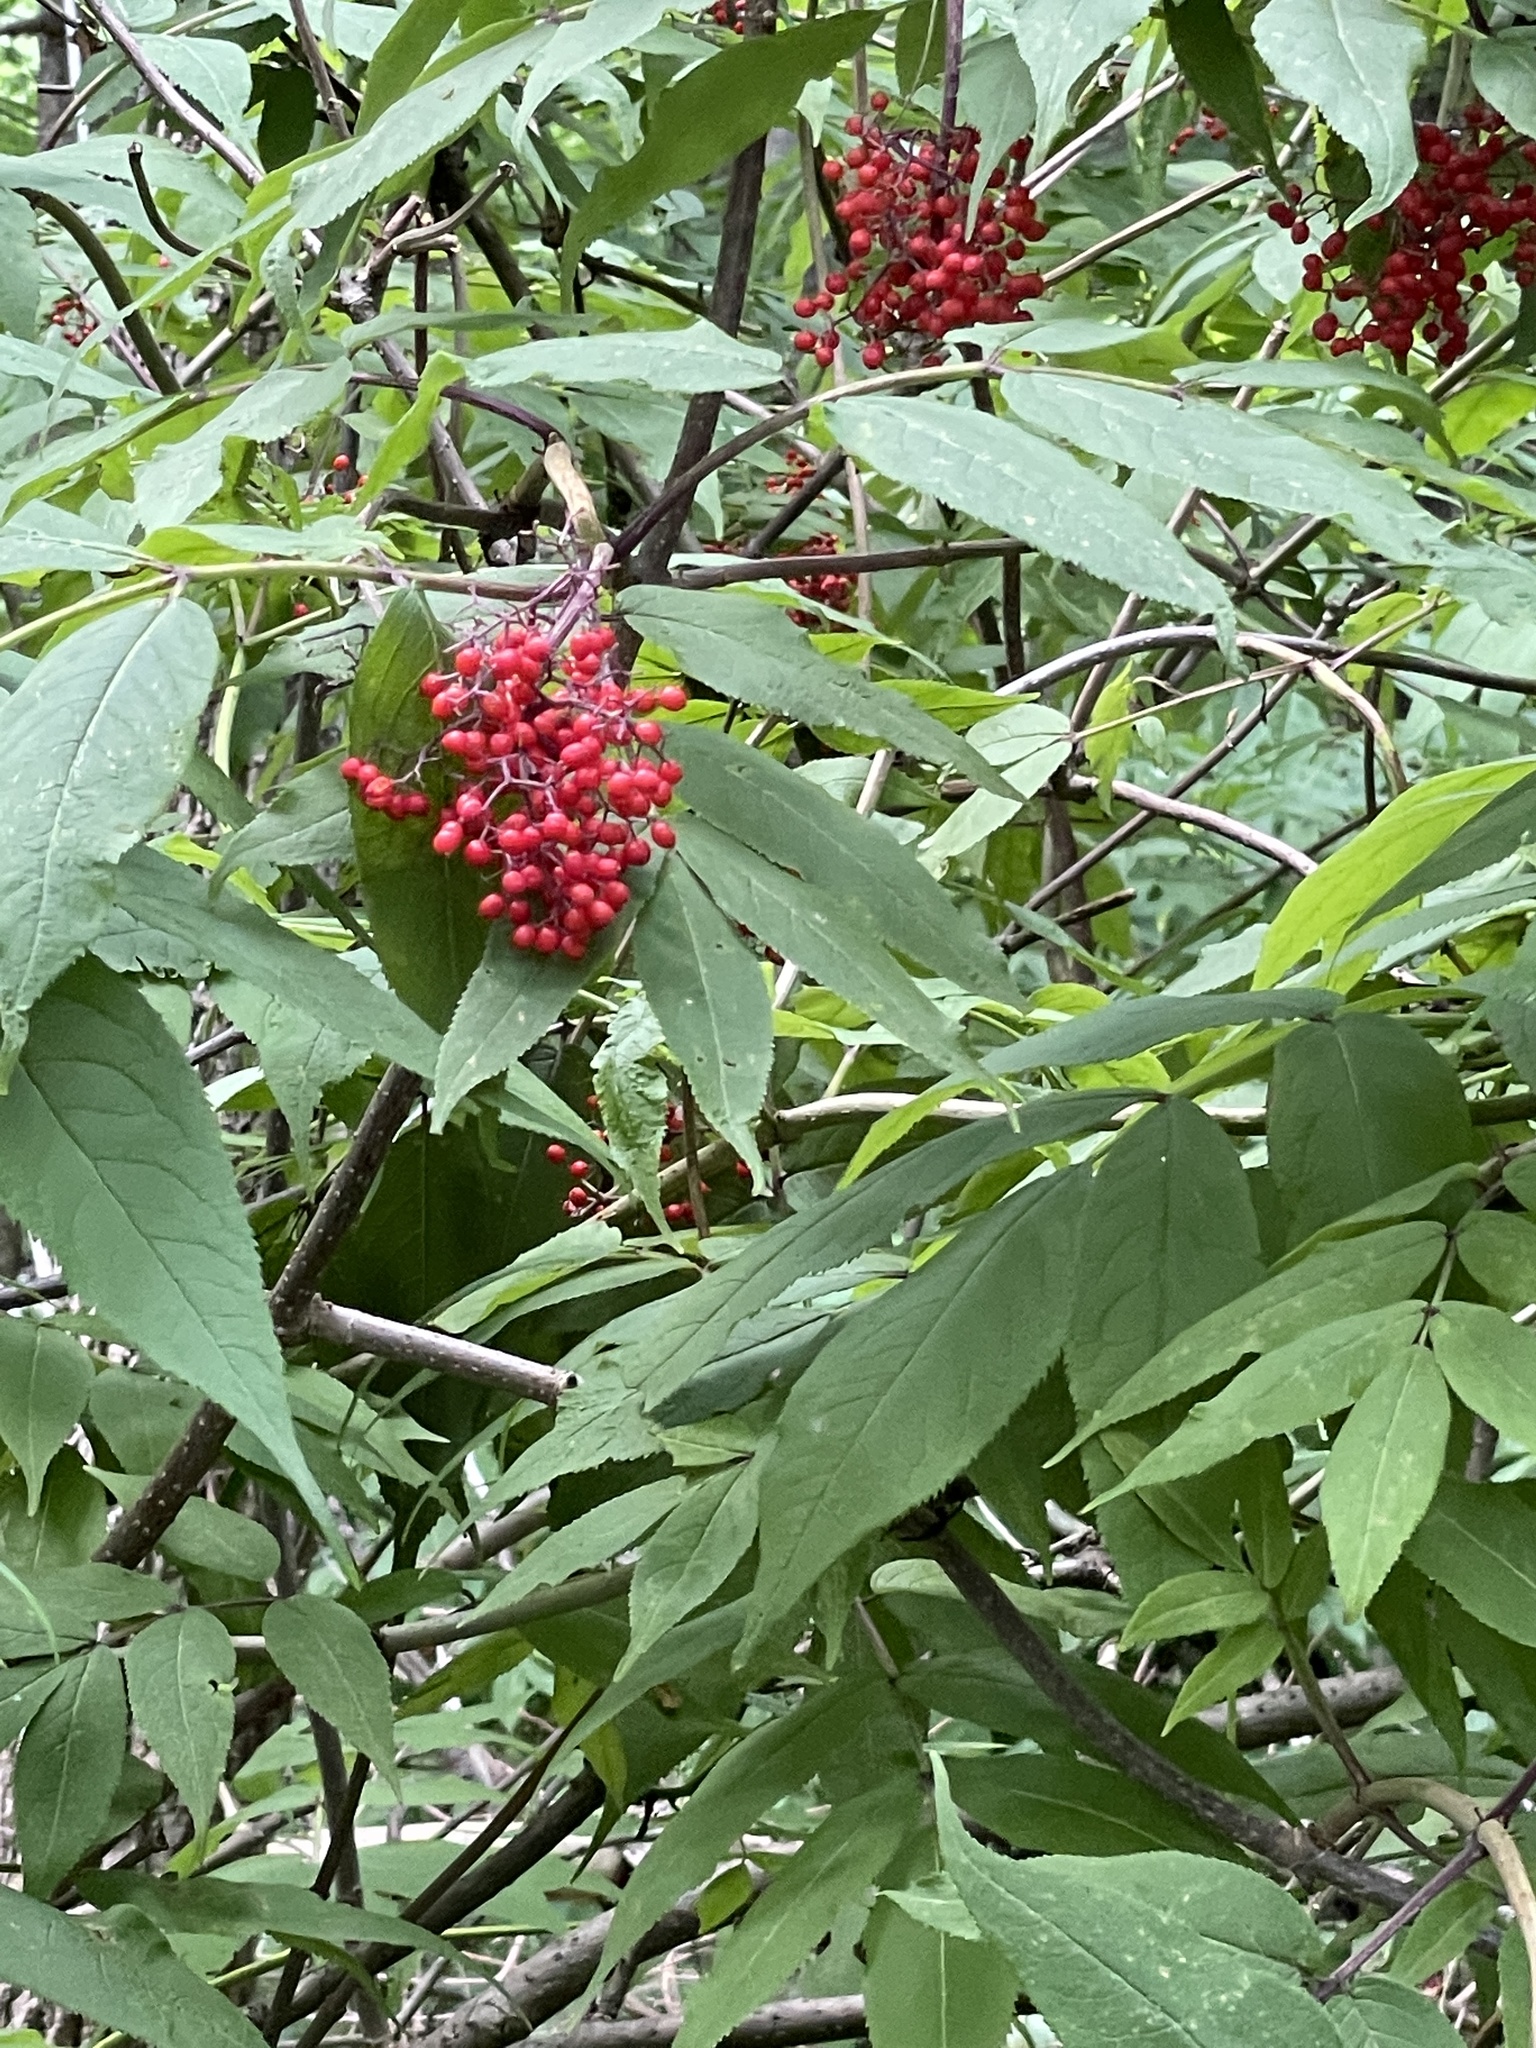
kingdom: Plantae
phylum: Tracheophyta
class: Magnoliopsida
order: Dipsacales
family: Viburnaceae
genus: Sambucus
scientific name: Sambucus racemosa
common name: Red-berried elder
